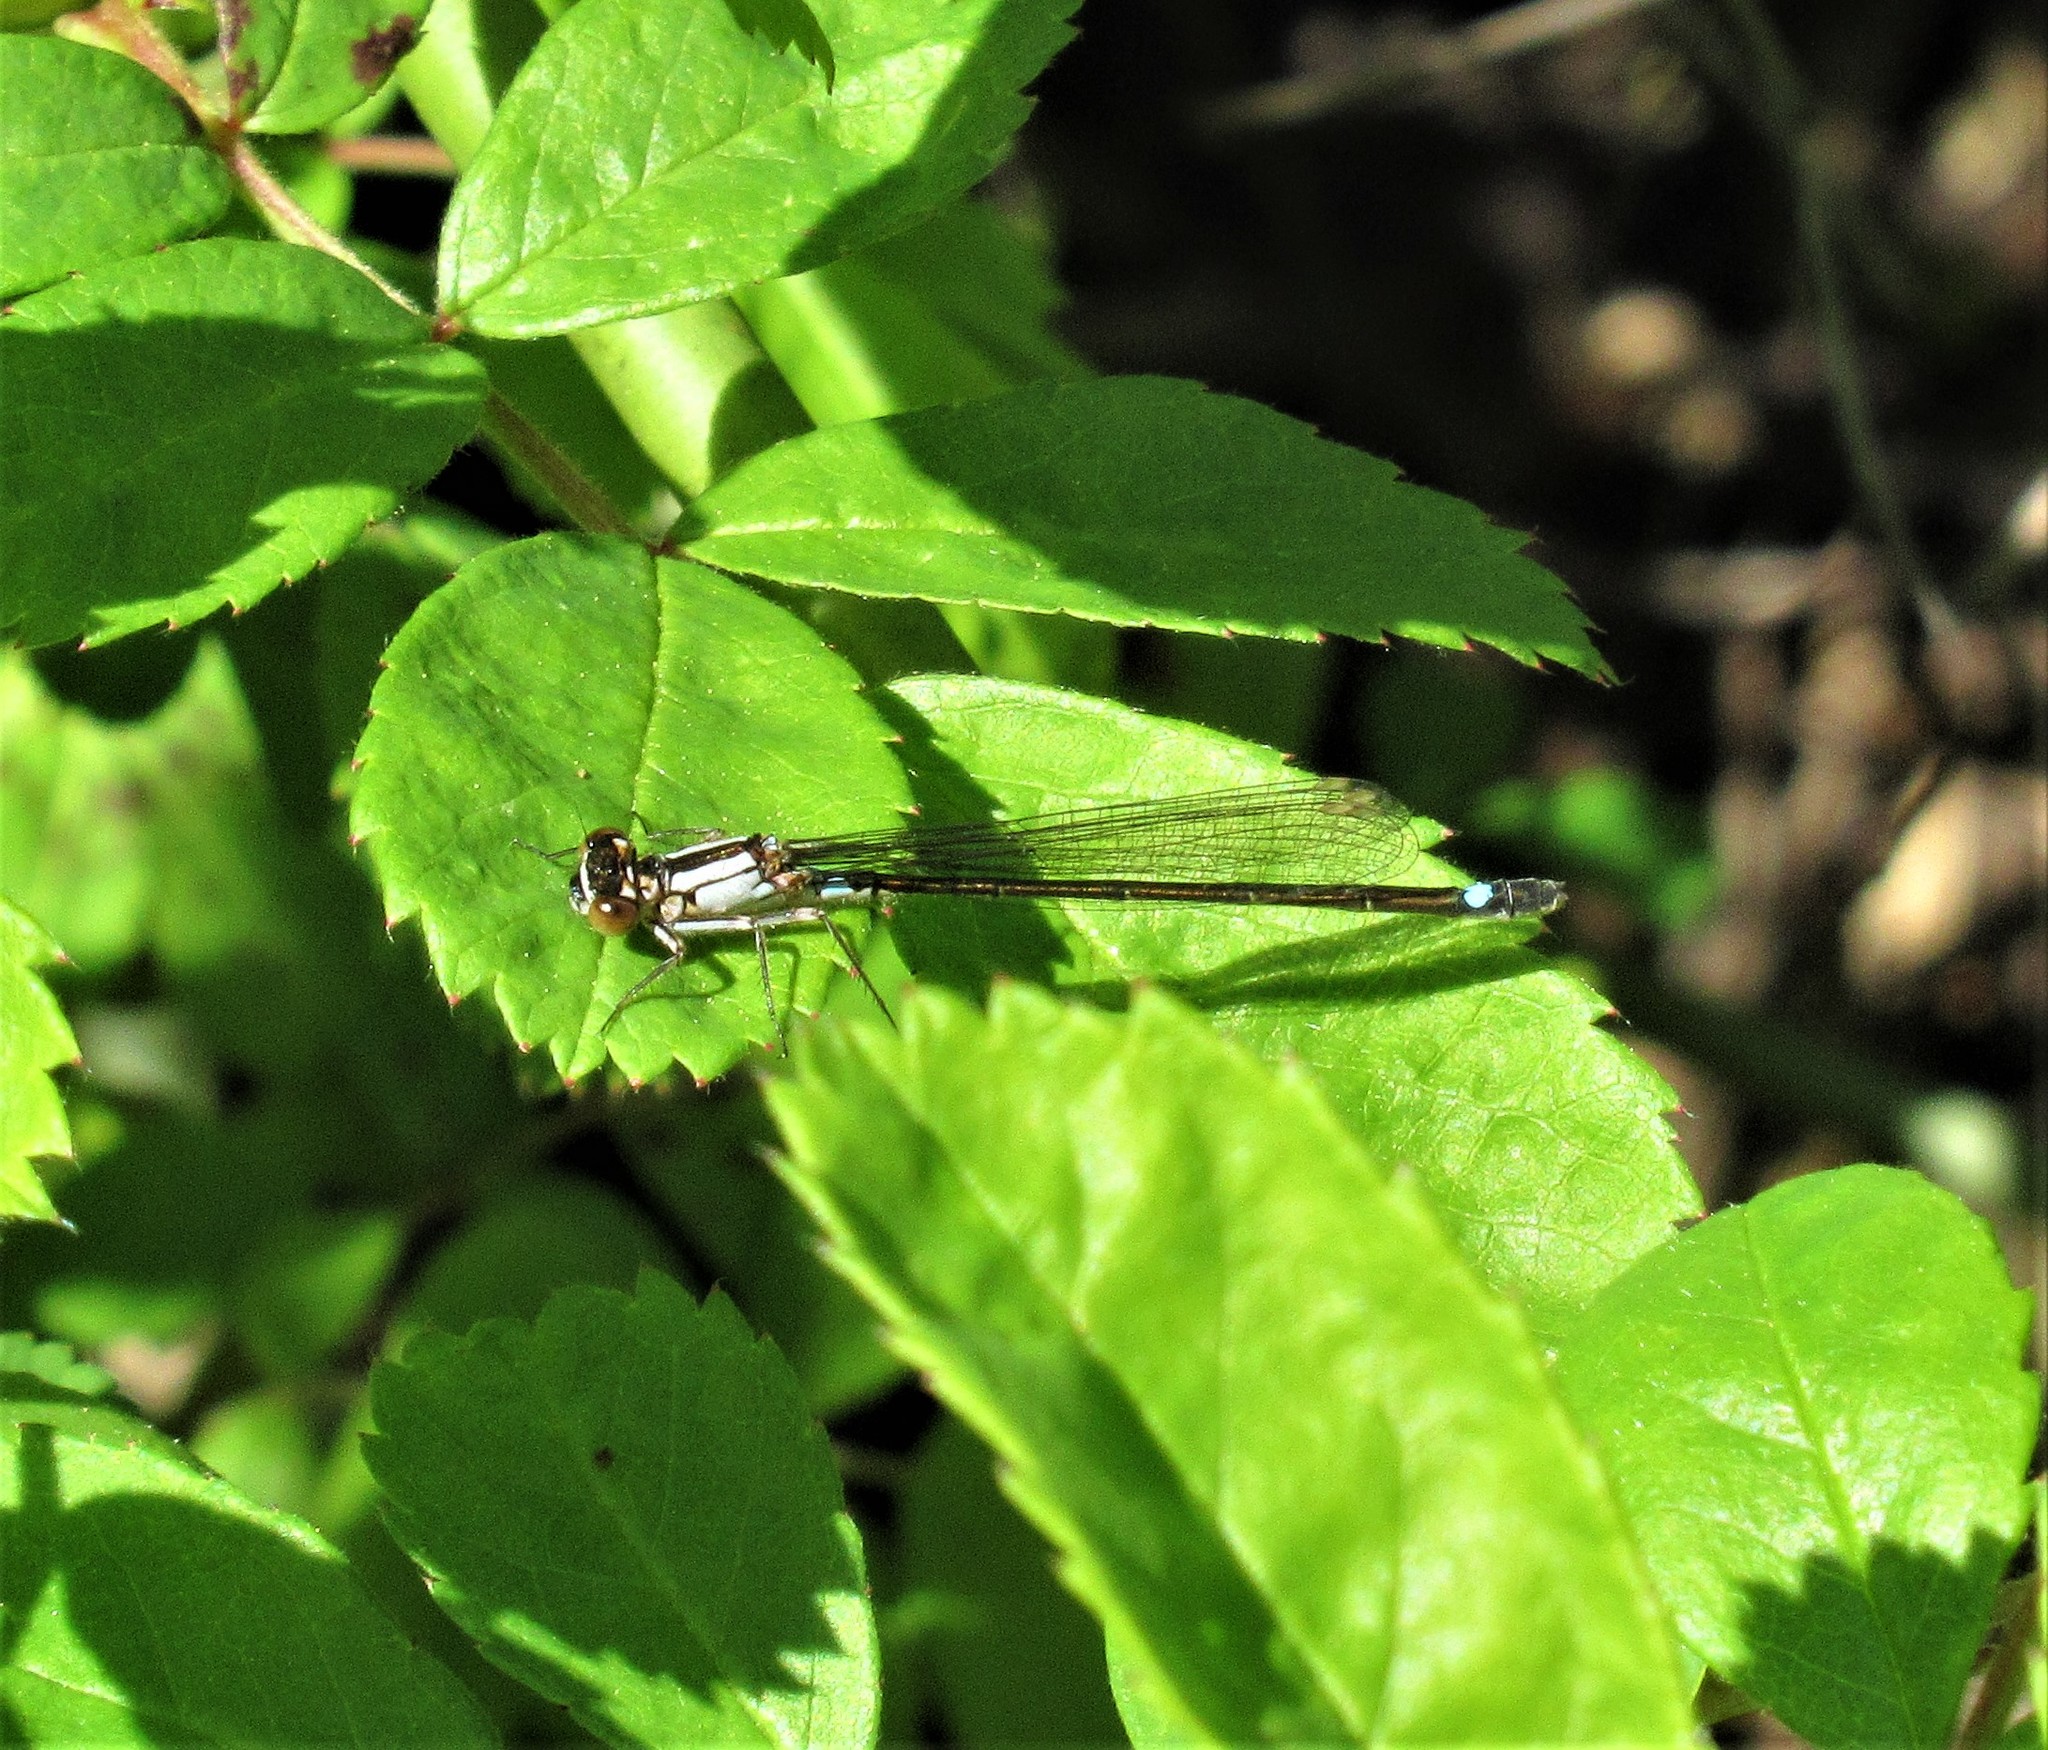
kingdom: Animalia
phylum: Arthropoda
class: Insecta
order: Odonata
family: Coenagrionidae
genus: Ischnura
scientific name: Ischnura cervula
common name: Pacific forktail
